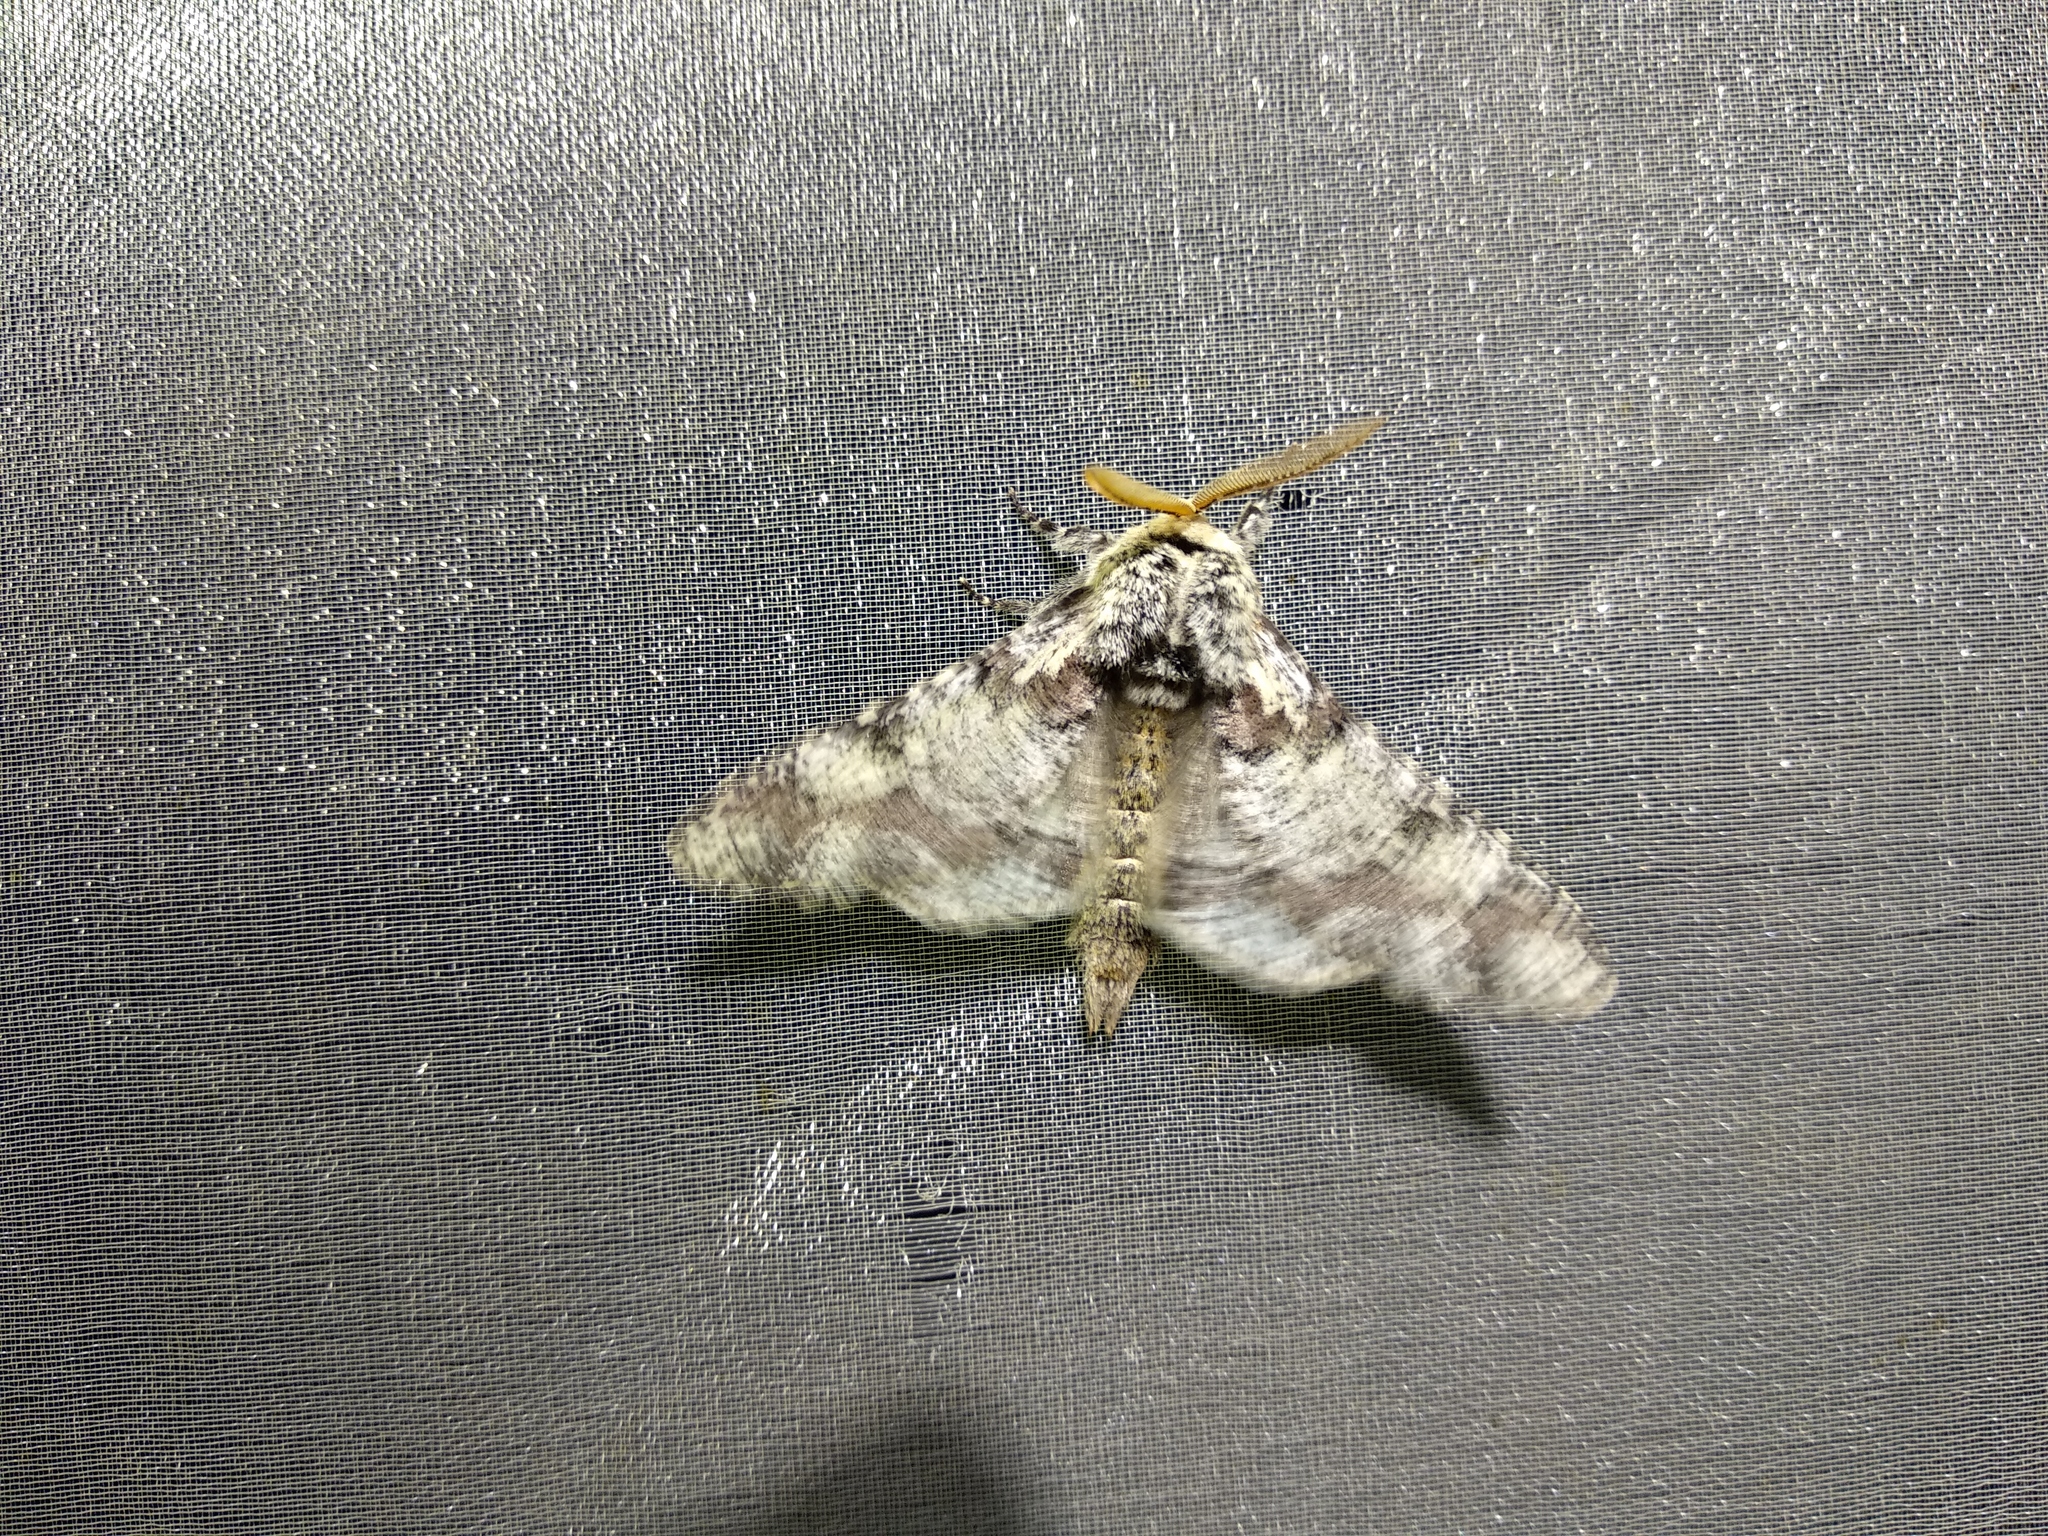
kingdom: Animalia
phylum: Arthropoda
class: Insecta
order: Lepidoptera
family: Geometridae
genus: Biston
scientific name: Biston strataria
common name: Oak beauty
